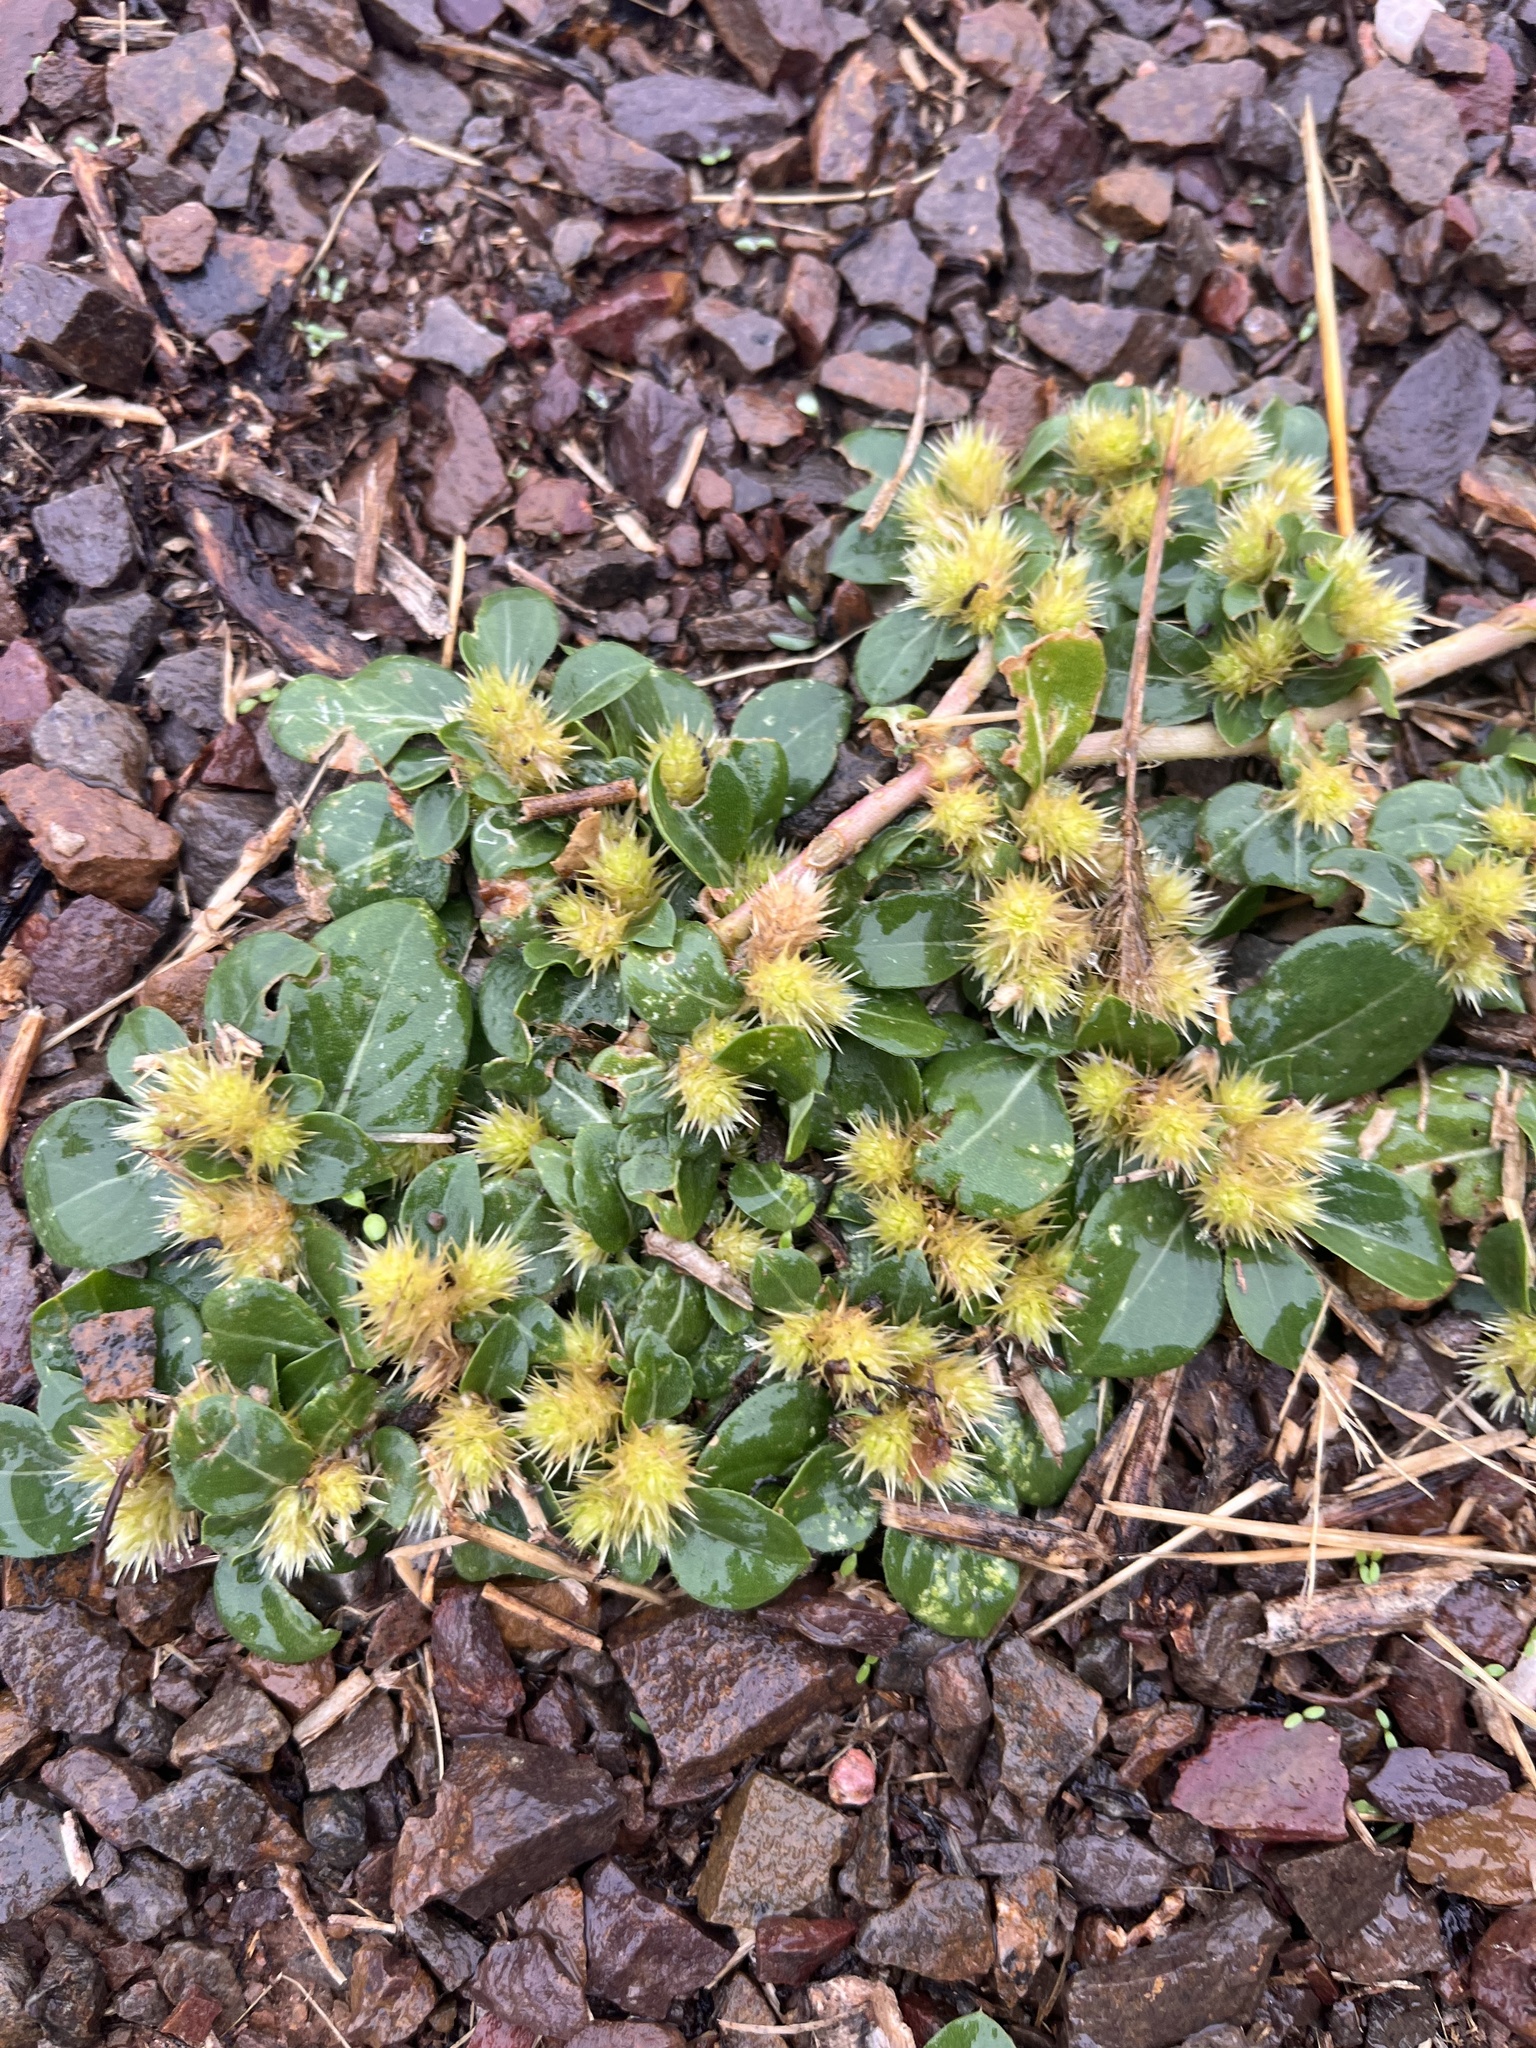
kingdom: Plantae
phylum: Tracheophyta
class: Magnoliopsida
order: Caryophyllales
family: Amaranthaceae
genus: Alternanthera
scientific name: Alternanthera pungens
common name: Khakiweed
